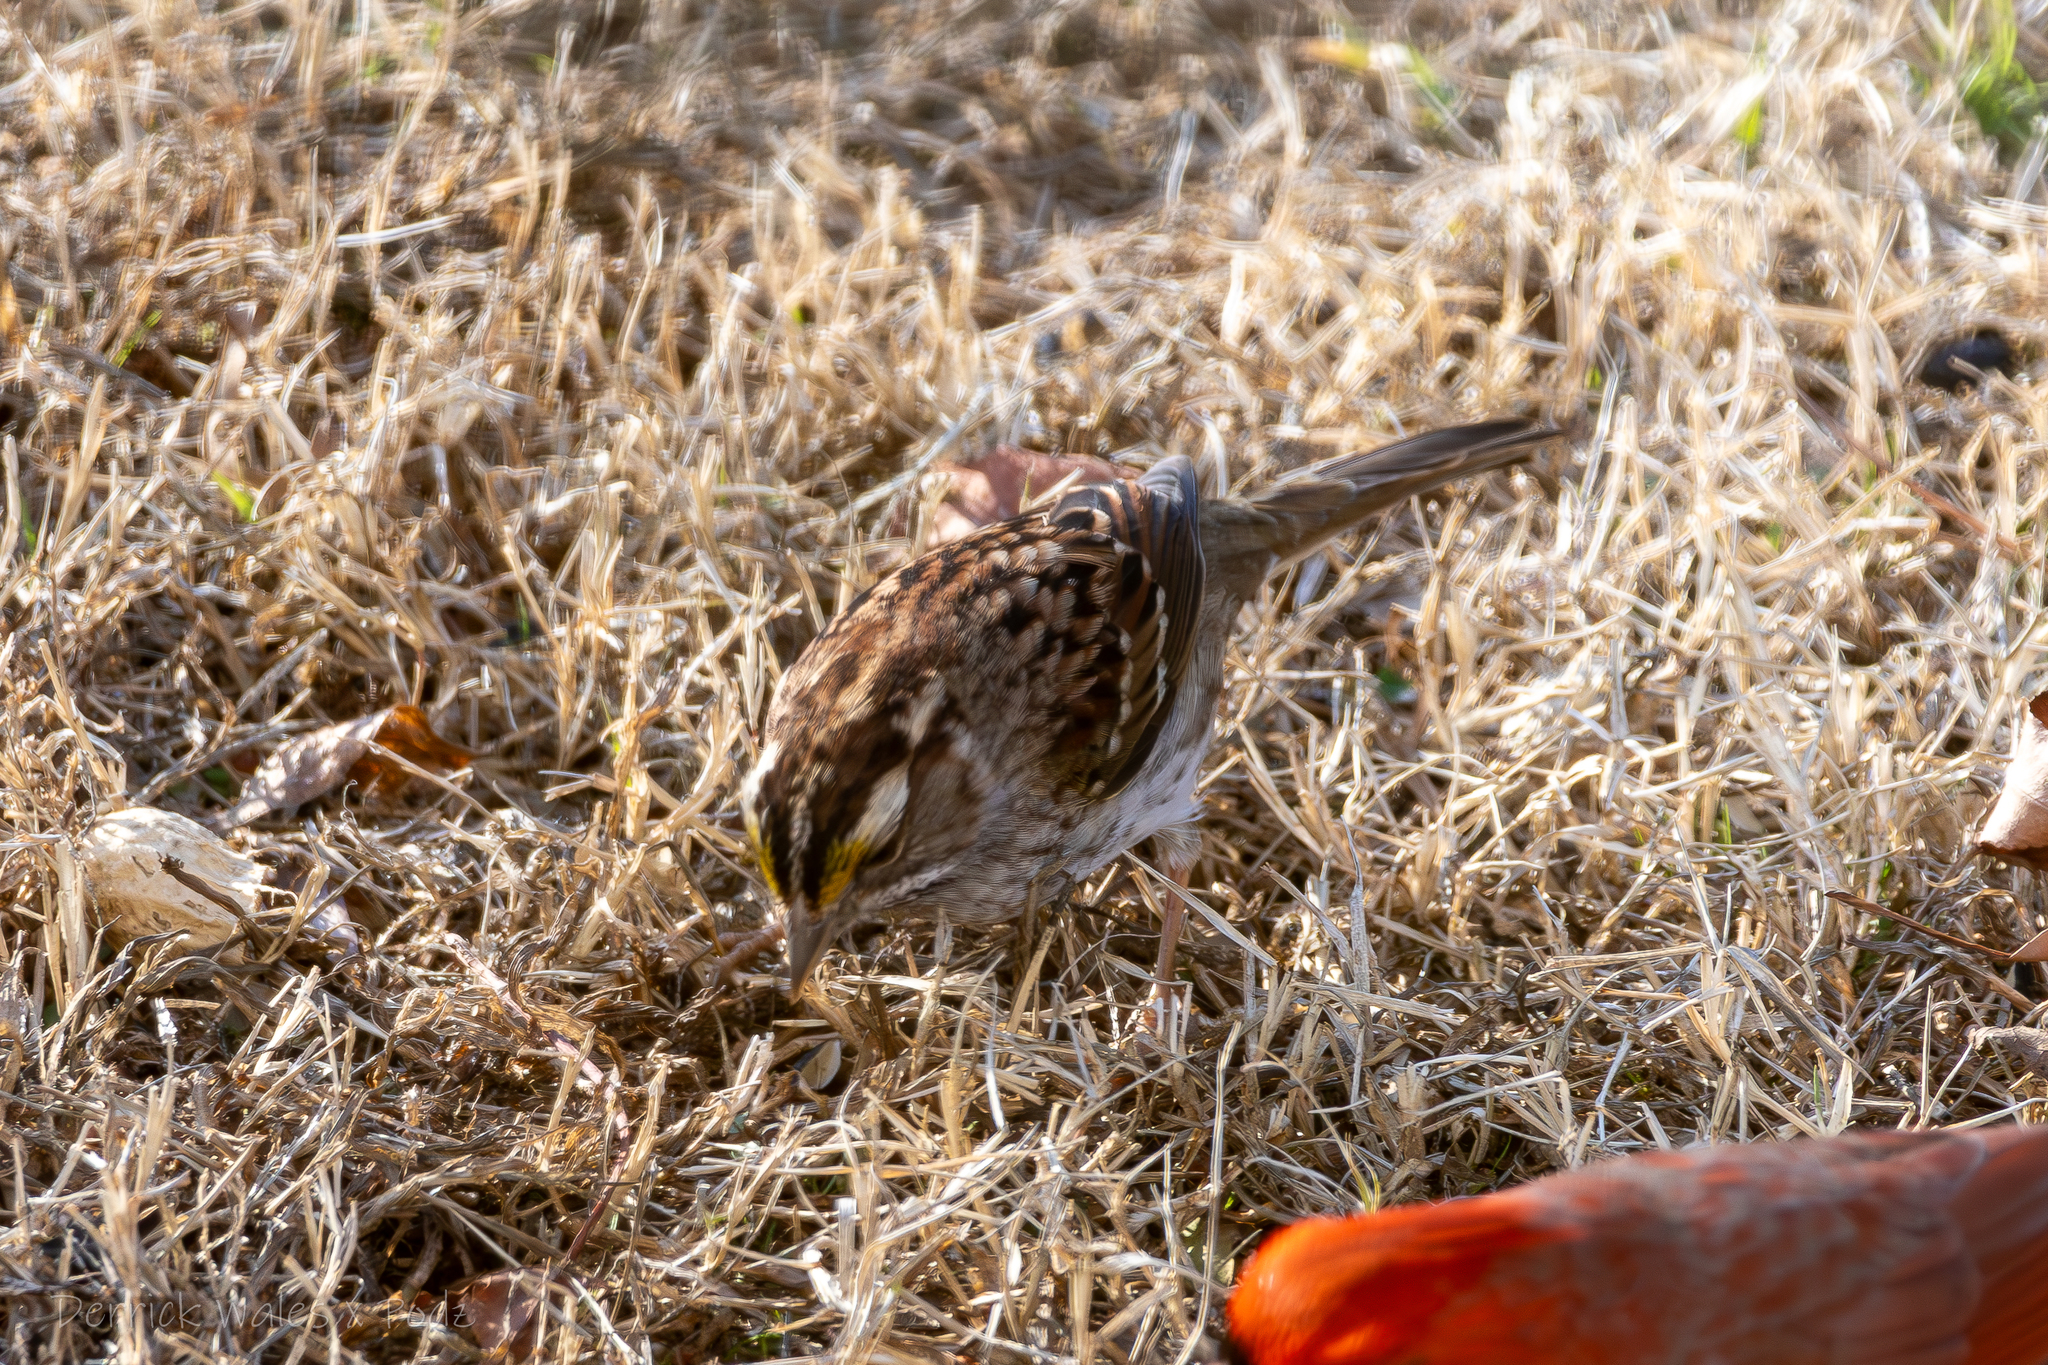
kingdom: Animalia
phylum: Chordata
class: Aves
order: Passeriformes
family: Passerellidae
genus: Zonotrichia
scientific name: Zonotrichia albicollis
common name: White-throated sparrow
